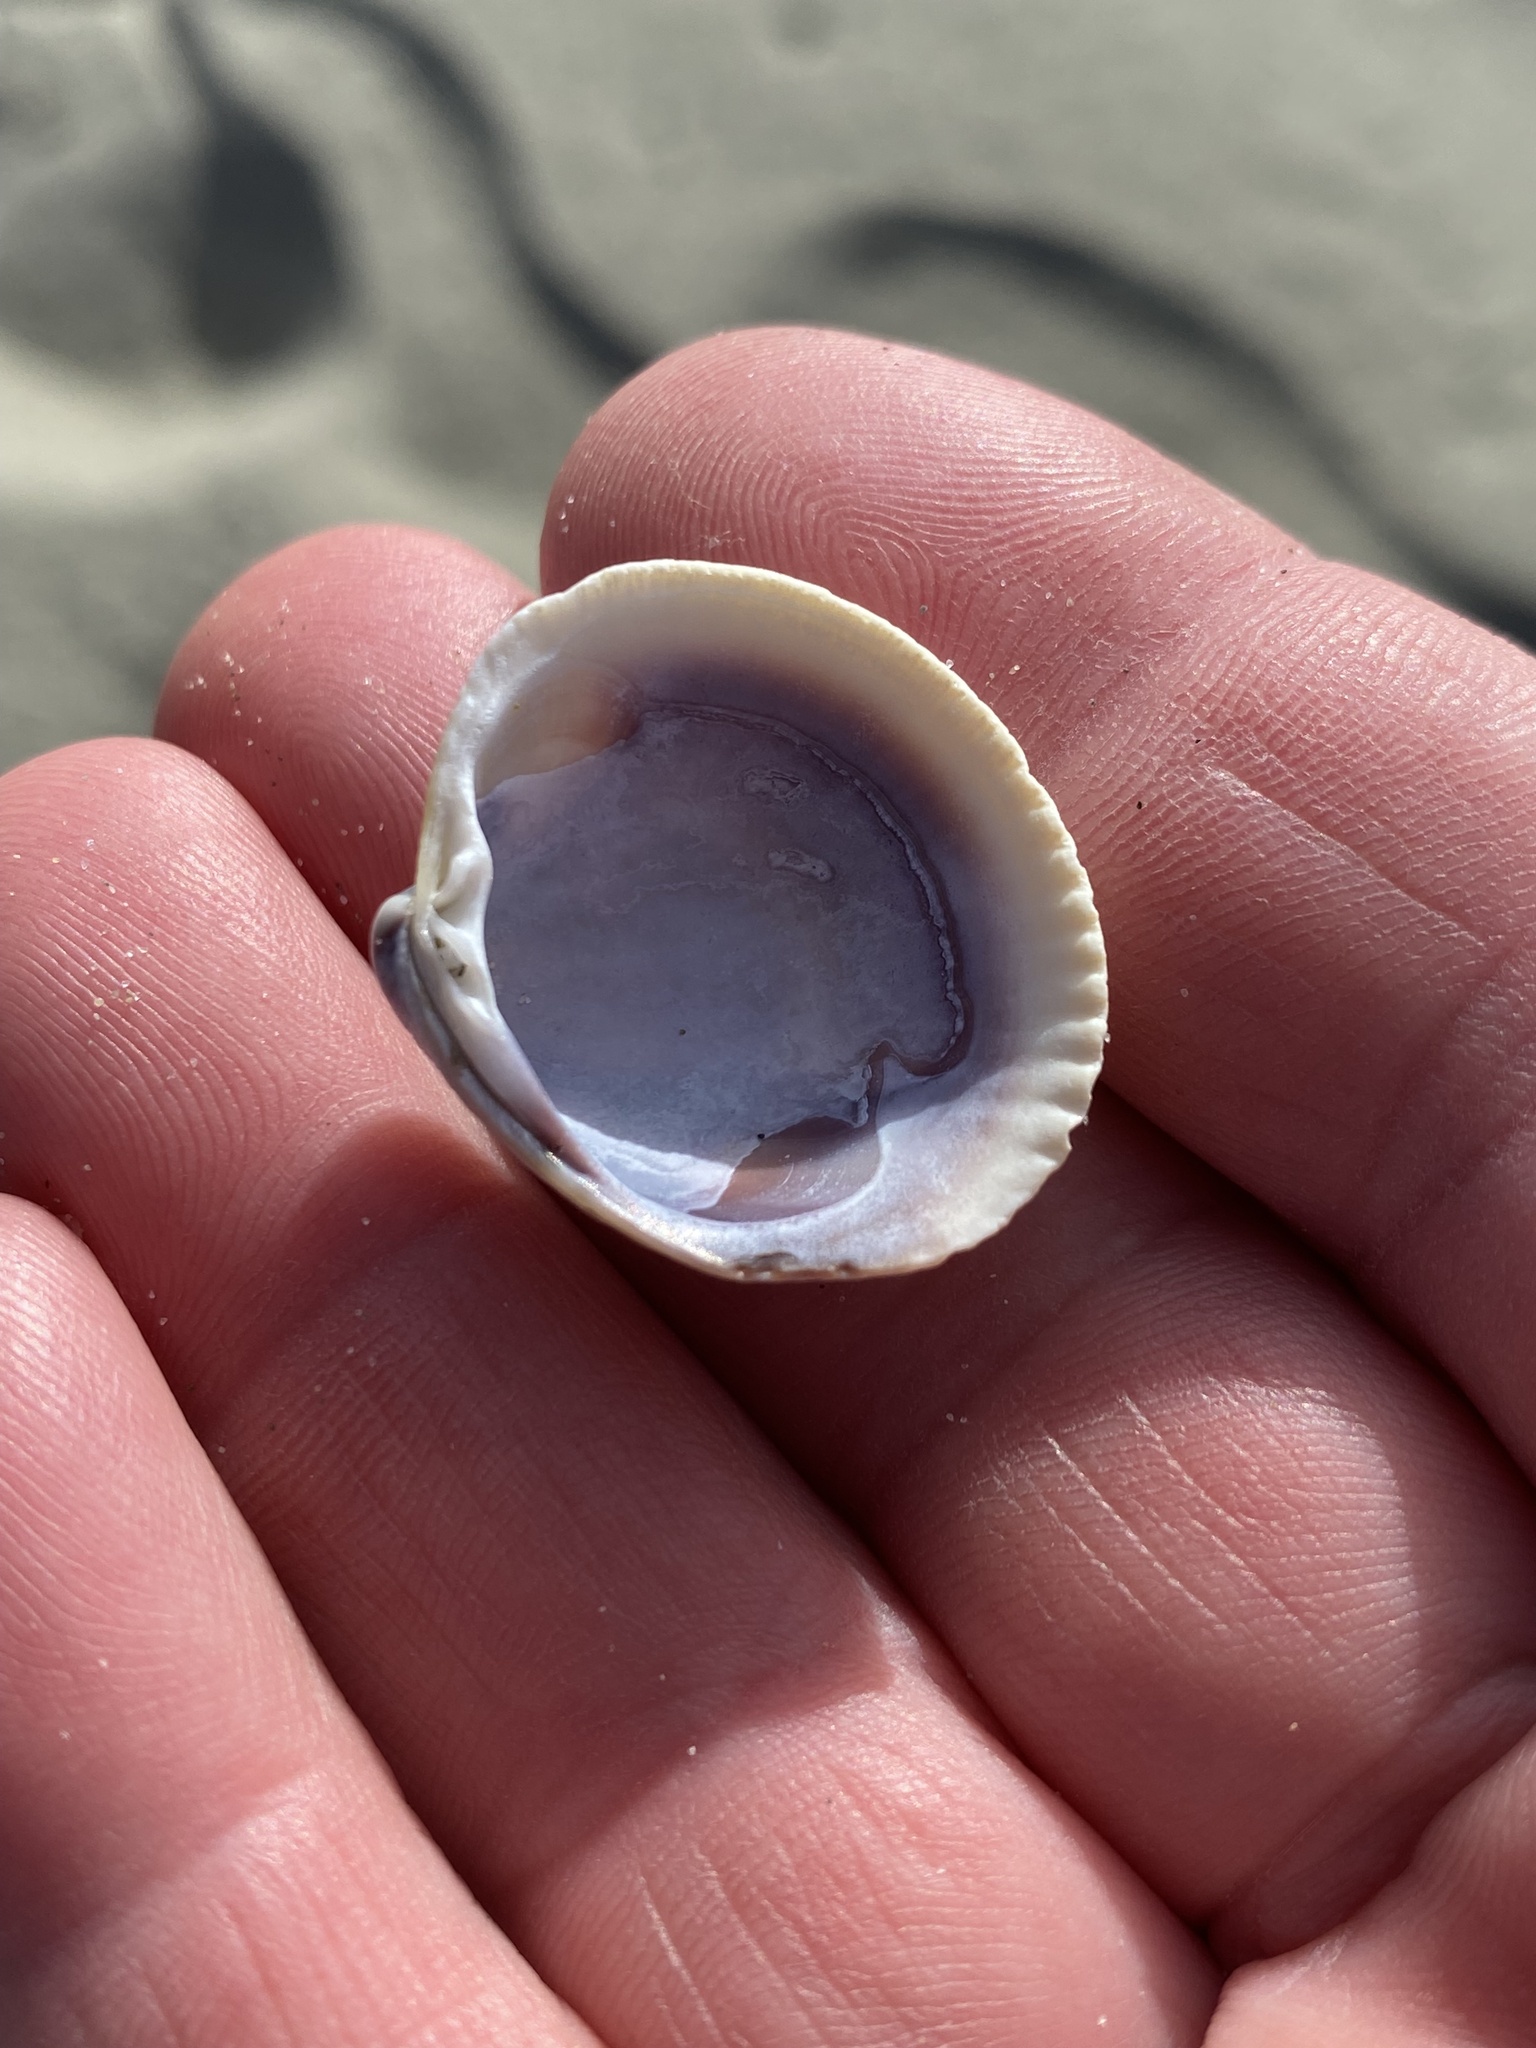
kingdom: Animalia
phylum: Mollusca
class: Bivalvia
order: Venerida
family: Veneridae
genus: Austrovenus
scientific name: Austrovenus stutchburyi
